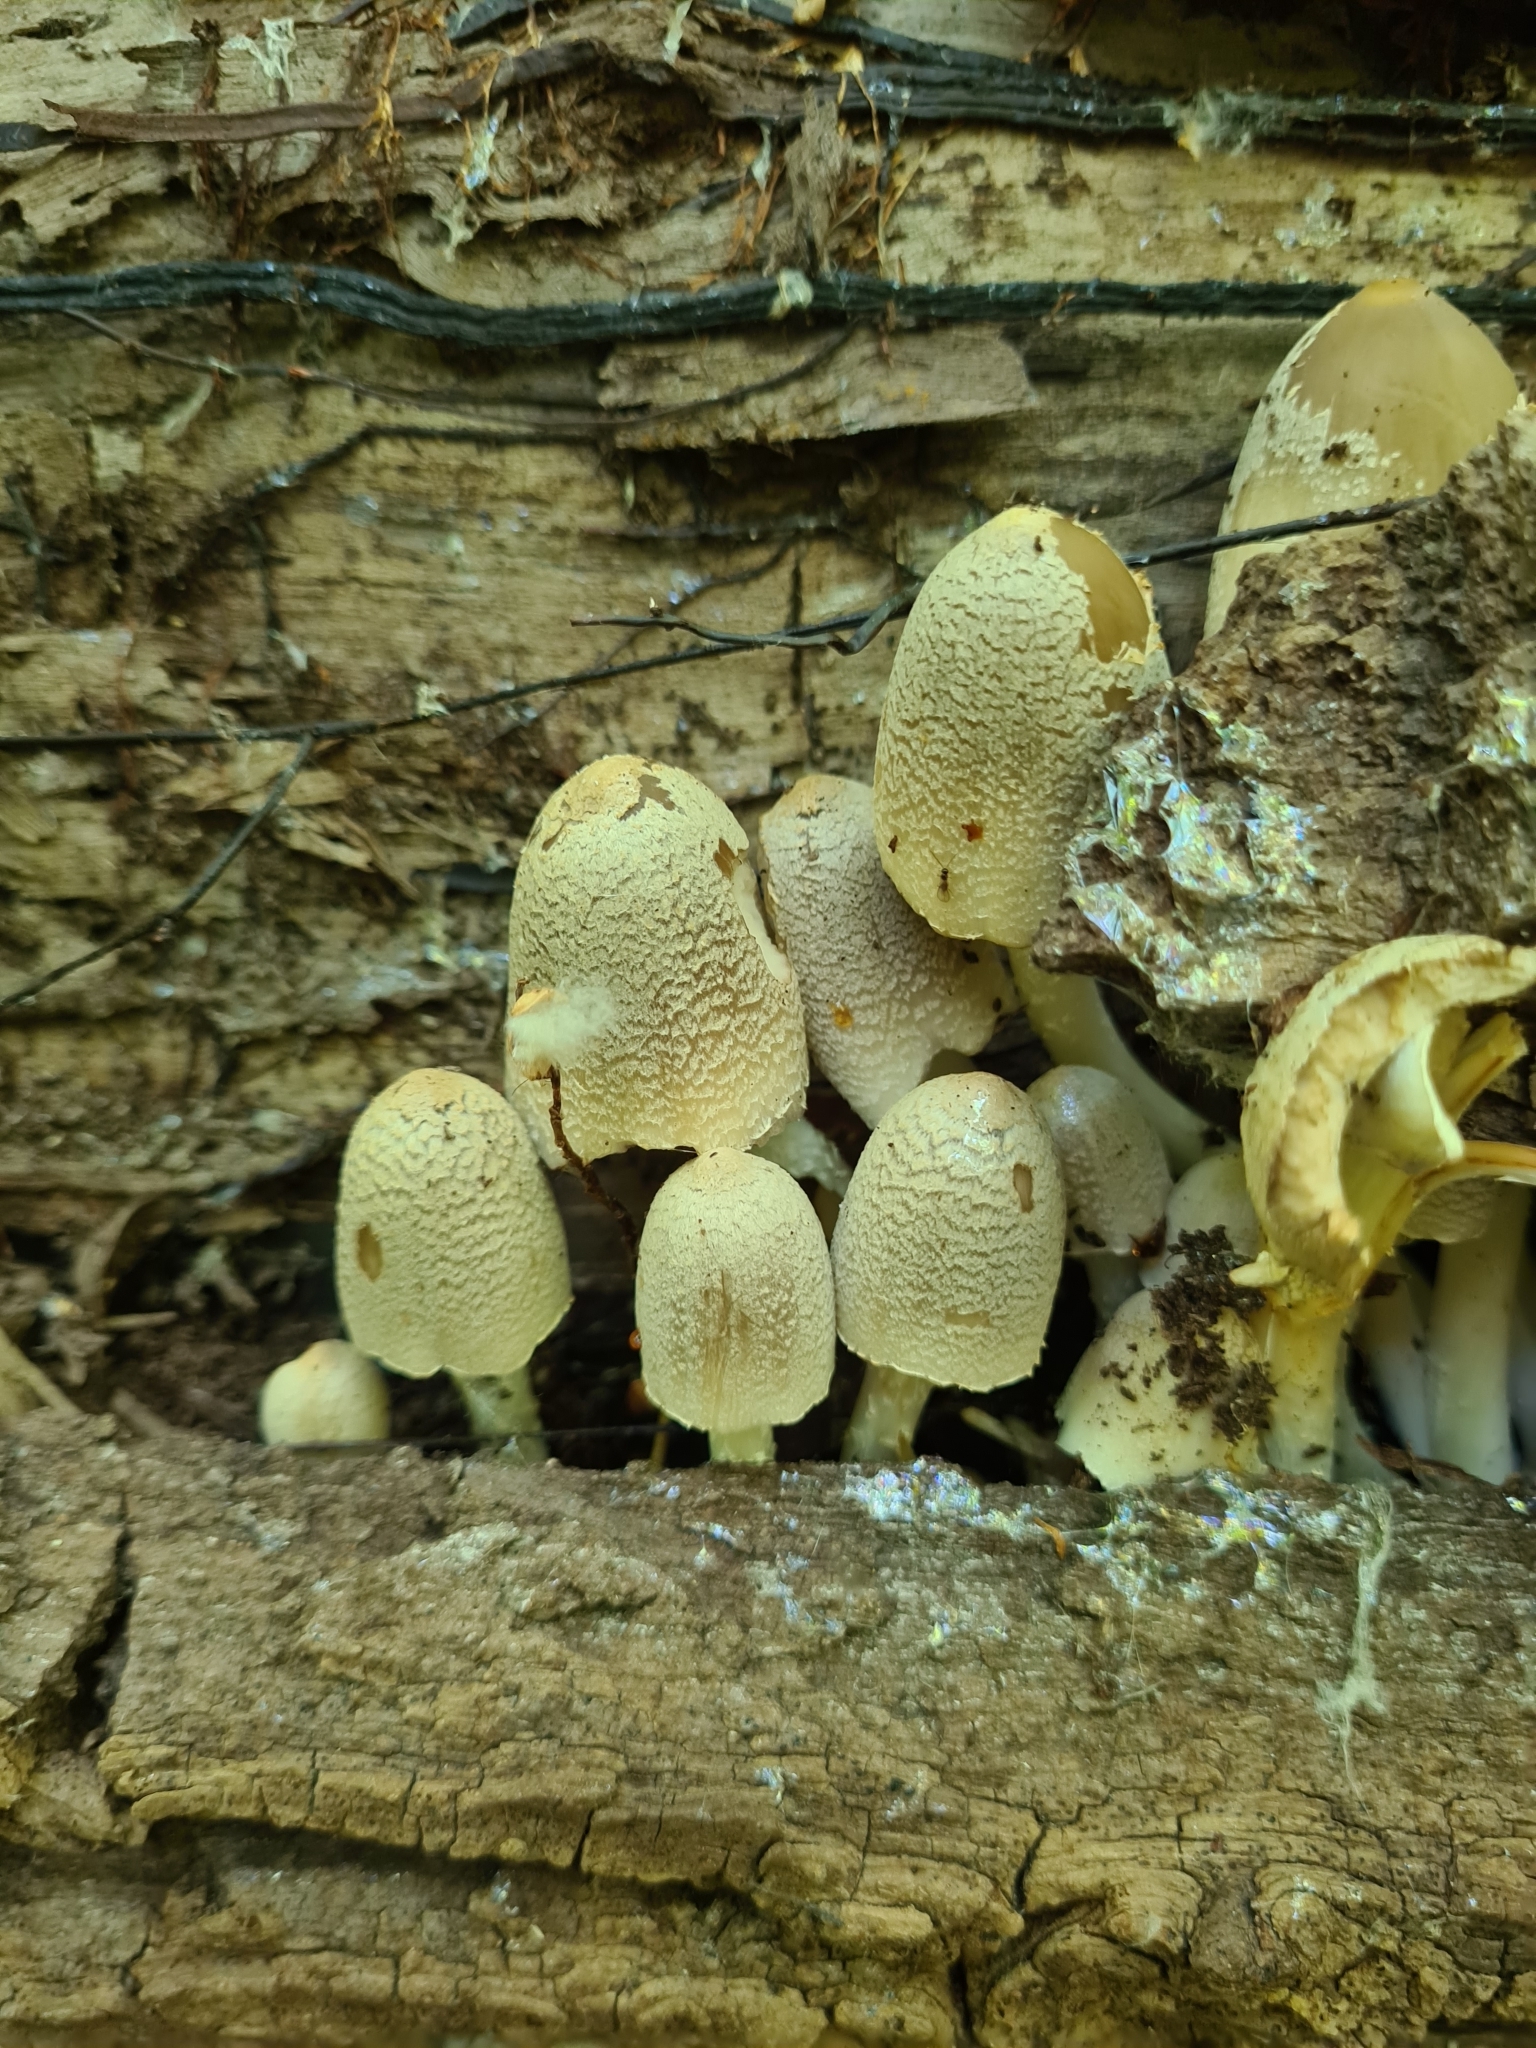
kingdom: Fungi
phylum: Basidiomycota
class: Agaricomycetes
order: Agaricales
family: Psathyrellaceae
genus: Coprinopsis
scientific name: Coprinopsis strossmayeri
